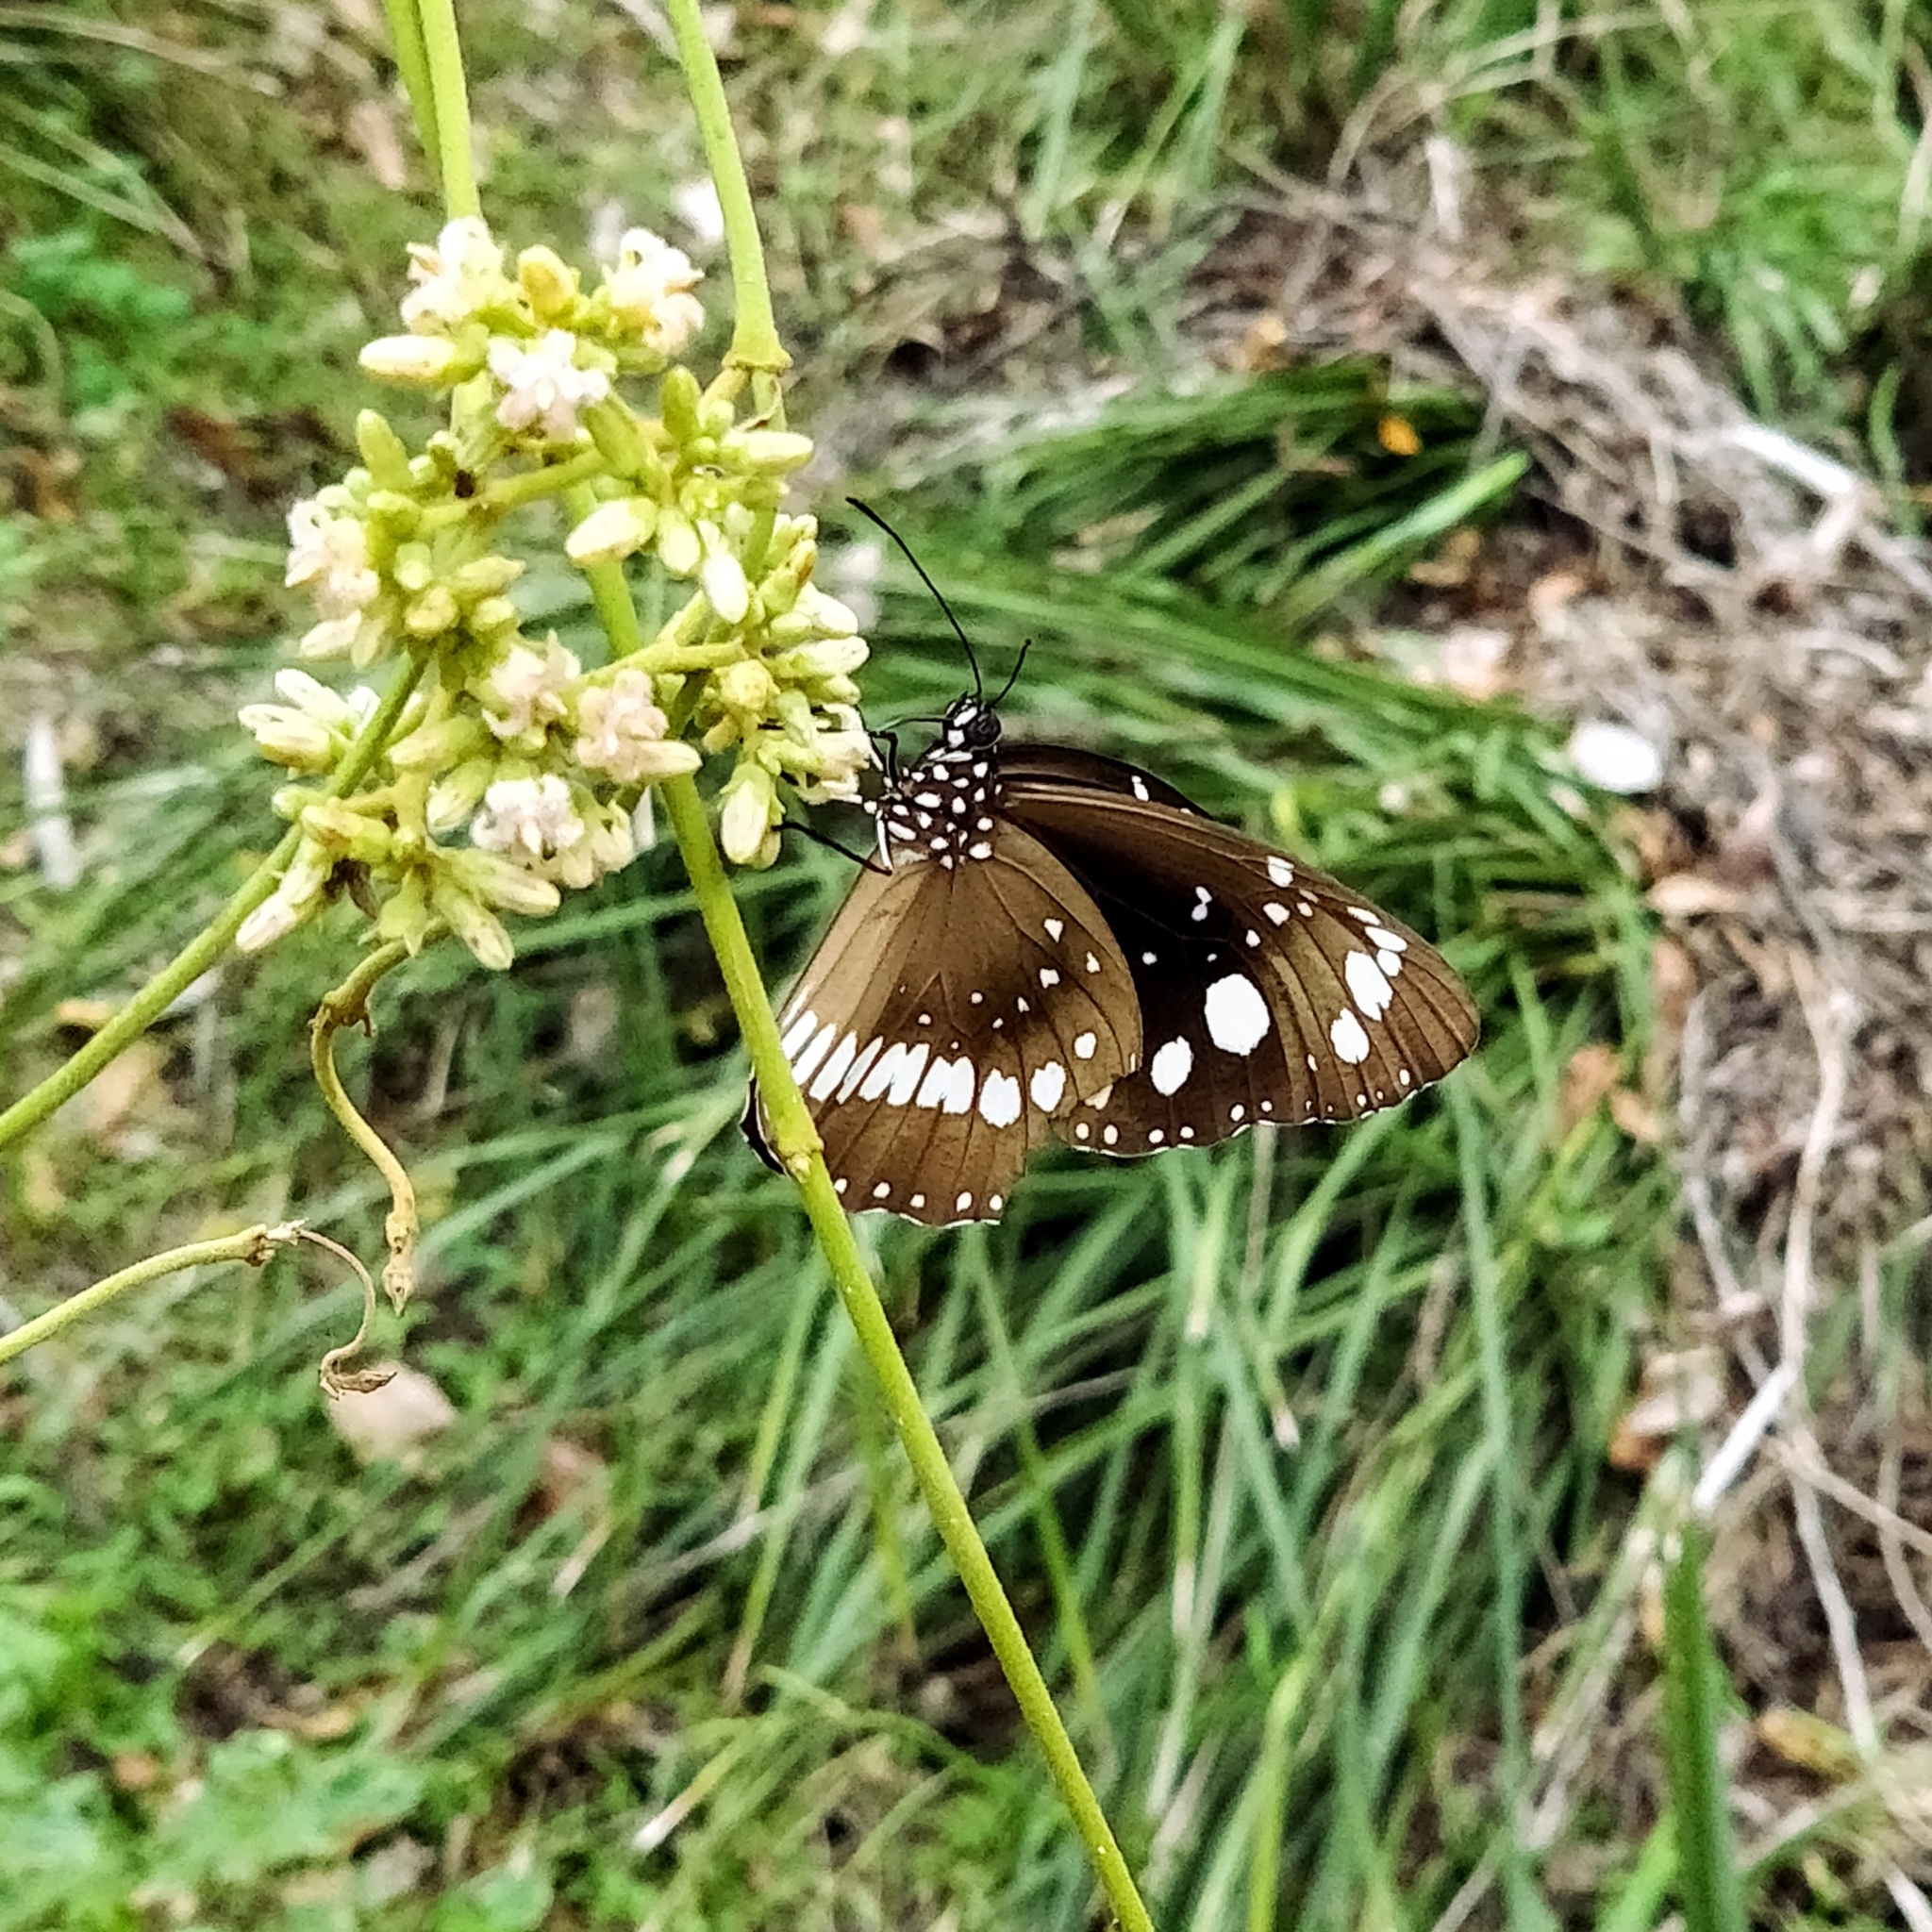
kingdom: Animalia
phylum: Arthropoda
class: Insecta
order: Lepidoptera
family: Nymphalidae
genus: Euploea
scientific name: Euploea core
